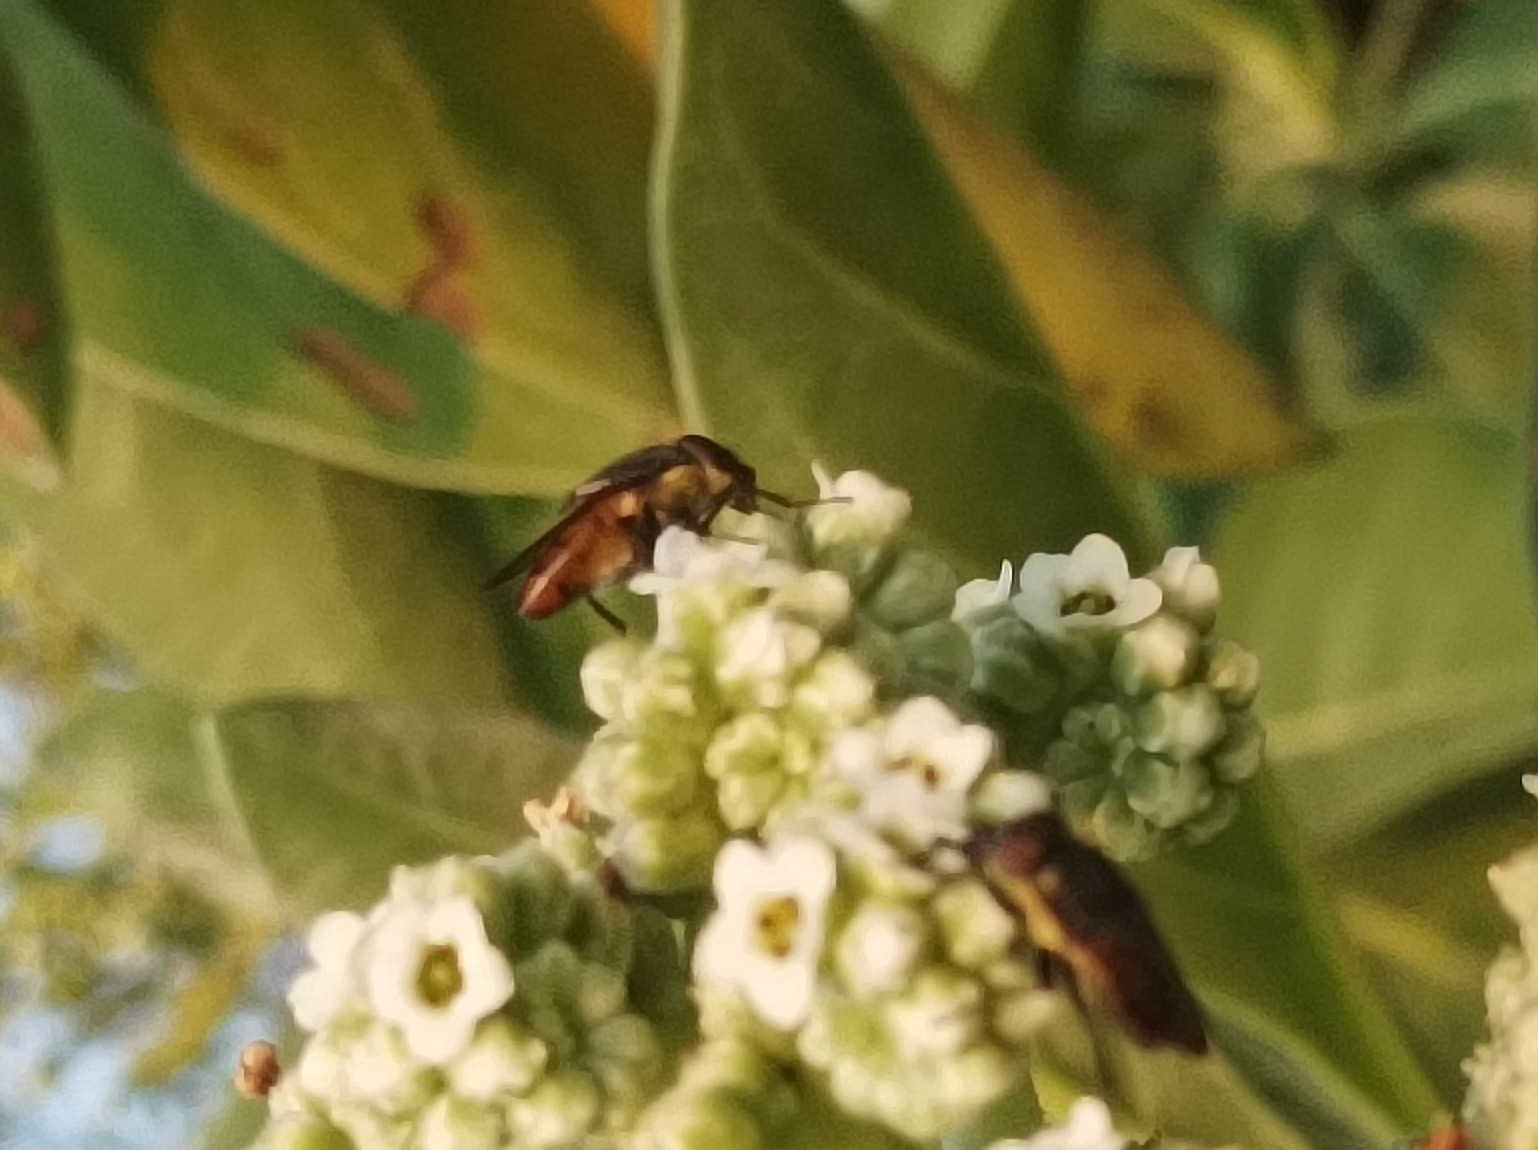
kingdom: Animalia
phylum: Arthropoda
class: Insecta
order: Diptera
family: Calliphoridae
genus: Idiellopsis
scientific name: Idiellopsis xanthogaster
